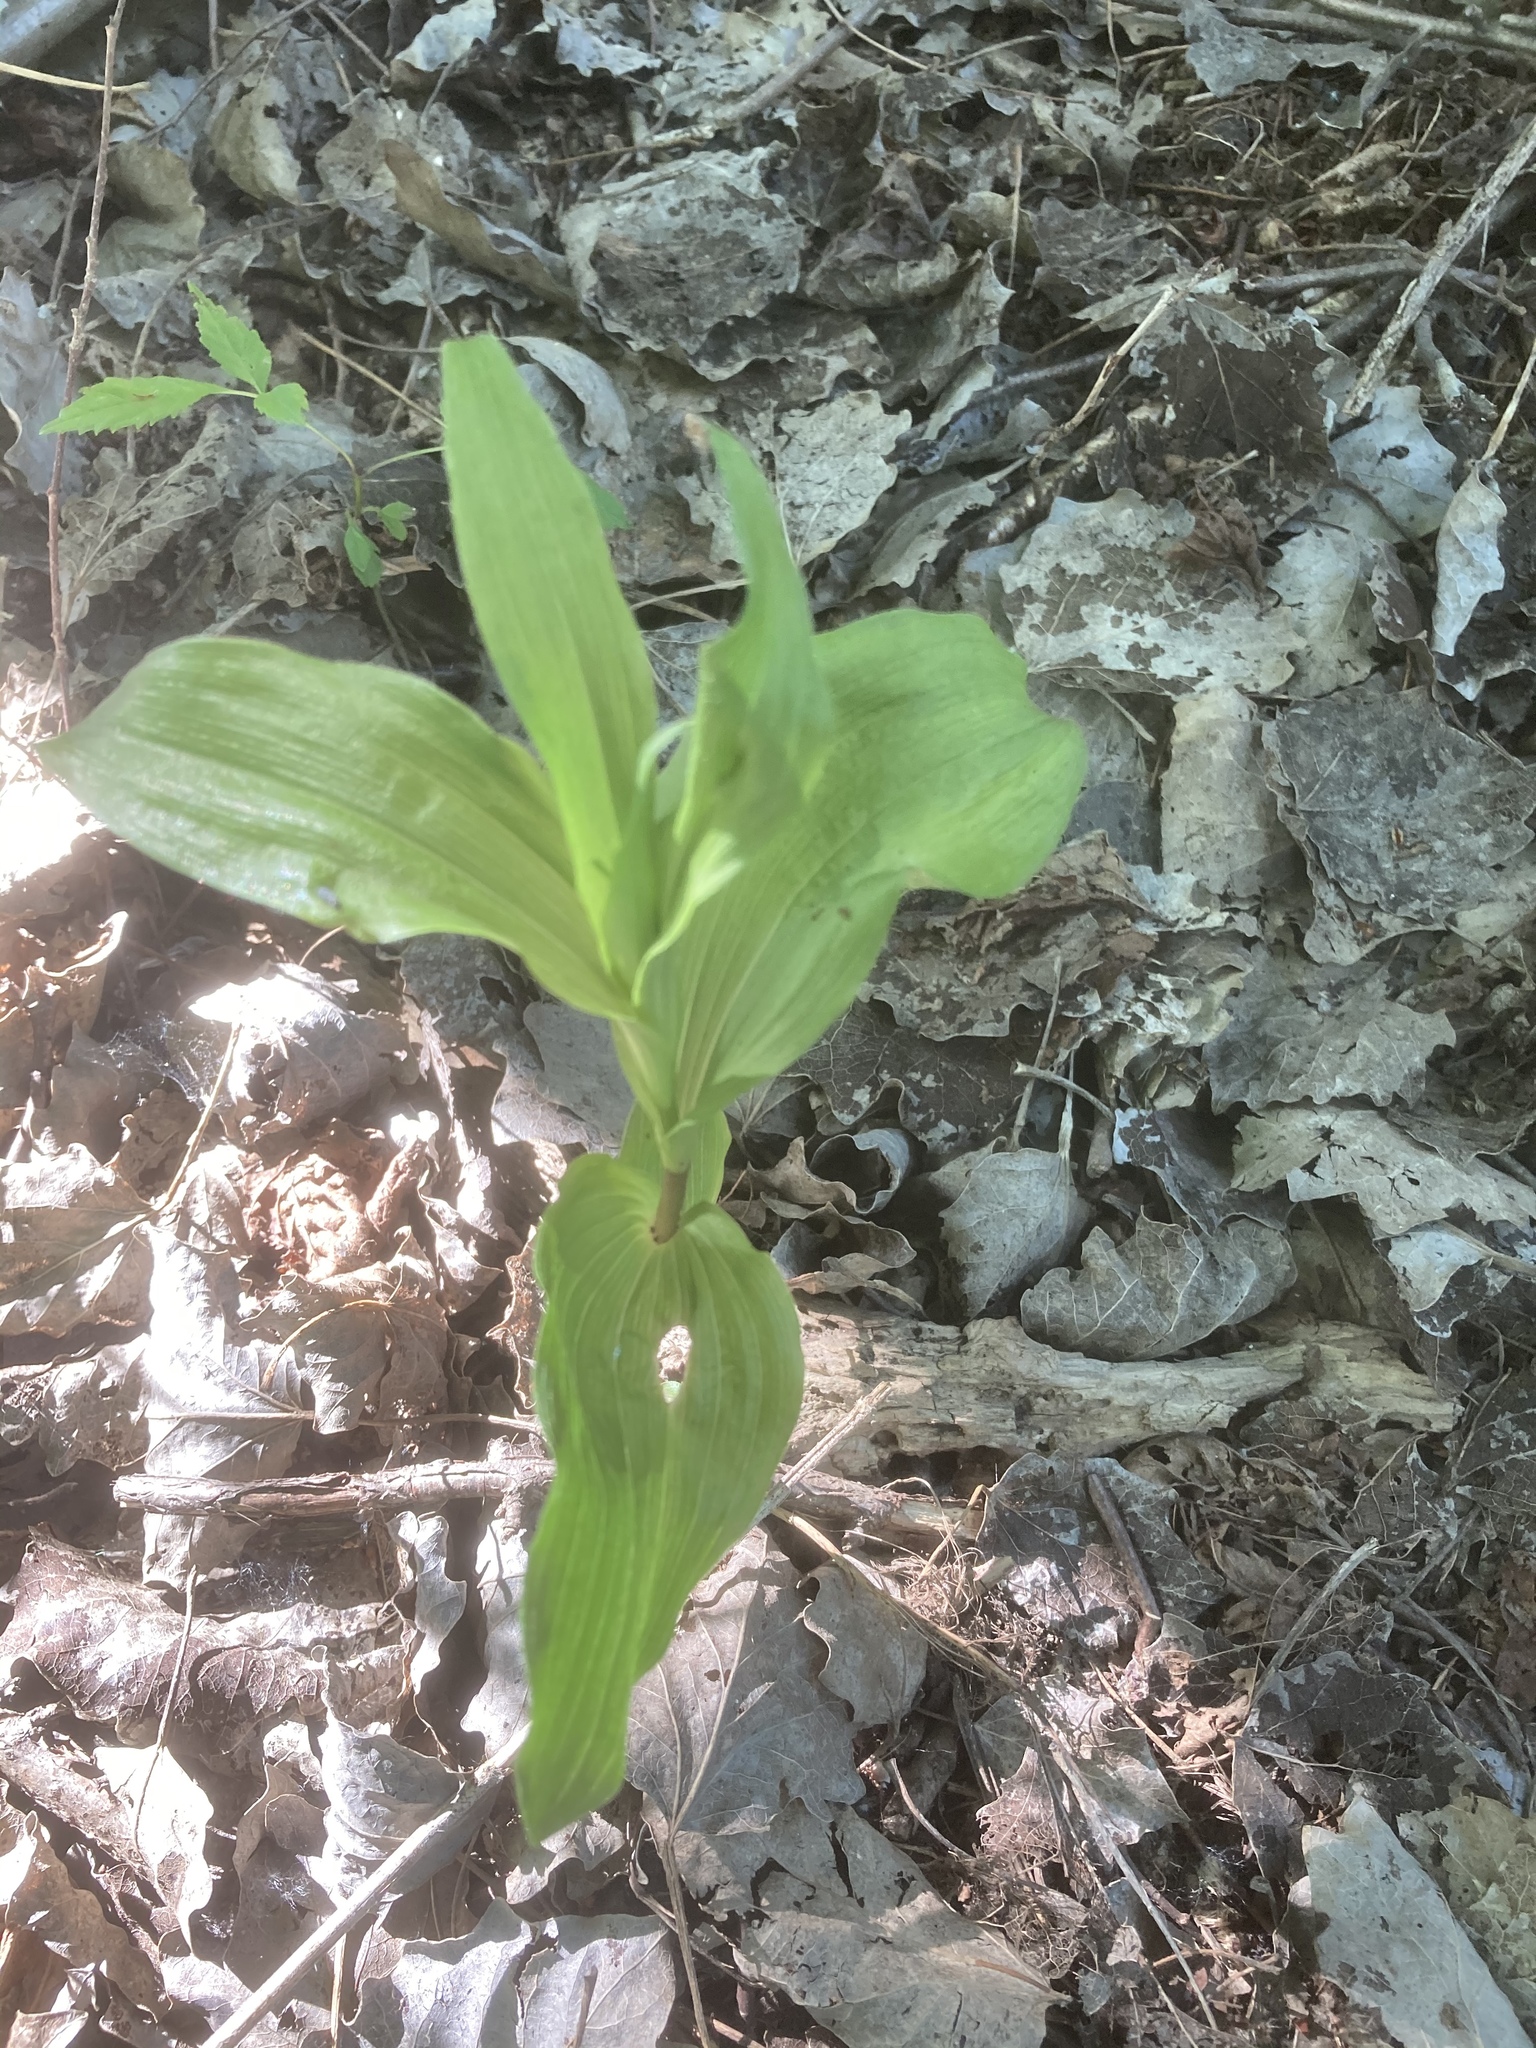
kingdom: Plantae
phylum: Tracheophyta
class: Liliopsida
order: Asparagales
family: Orchidaceae
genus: Epipactis
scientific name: Epipactis helleborine
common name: Broad-leaved helleborine
